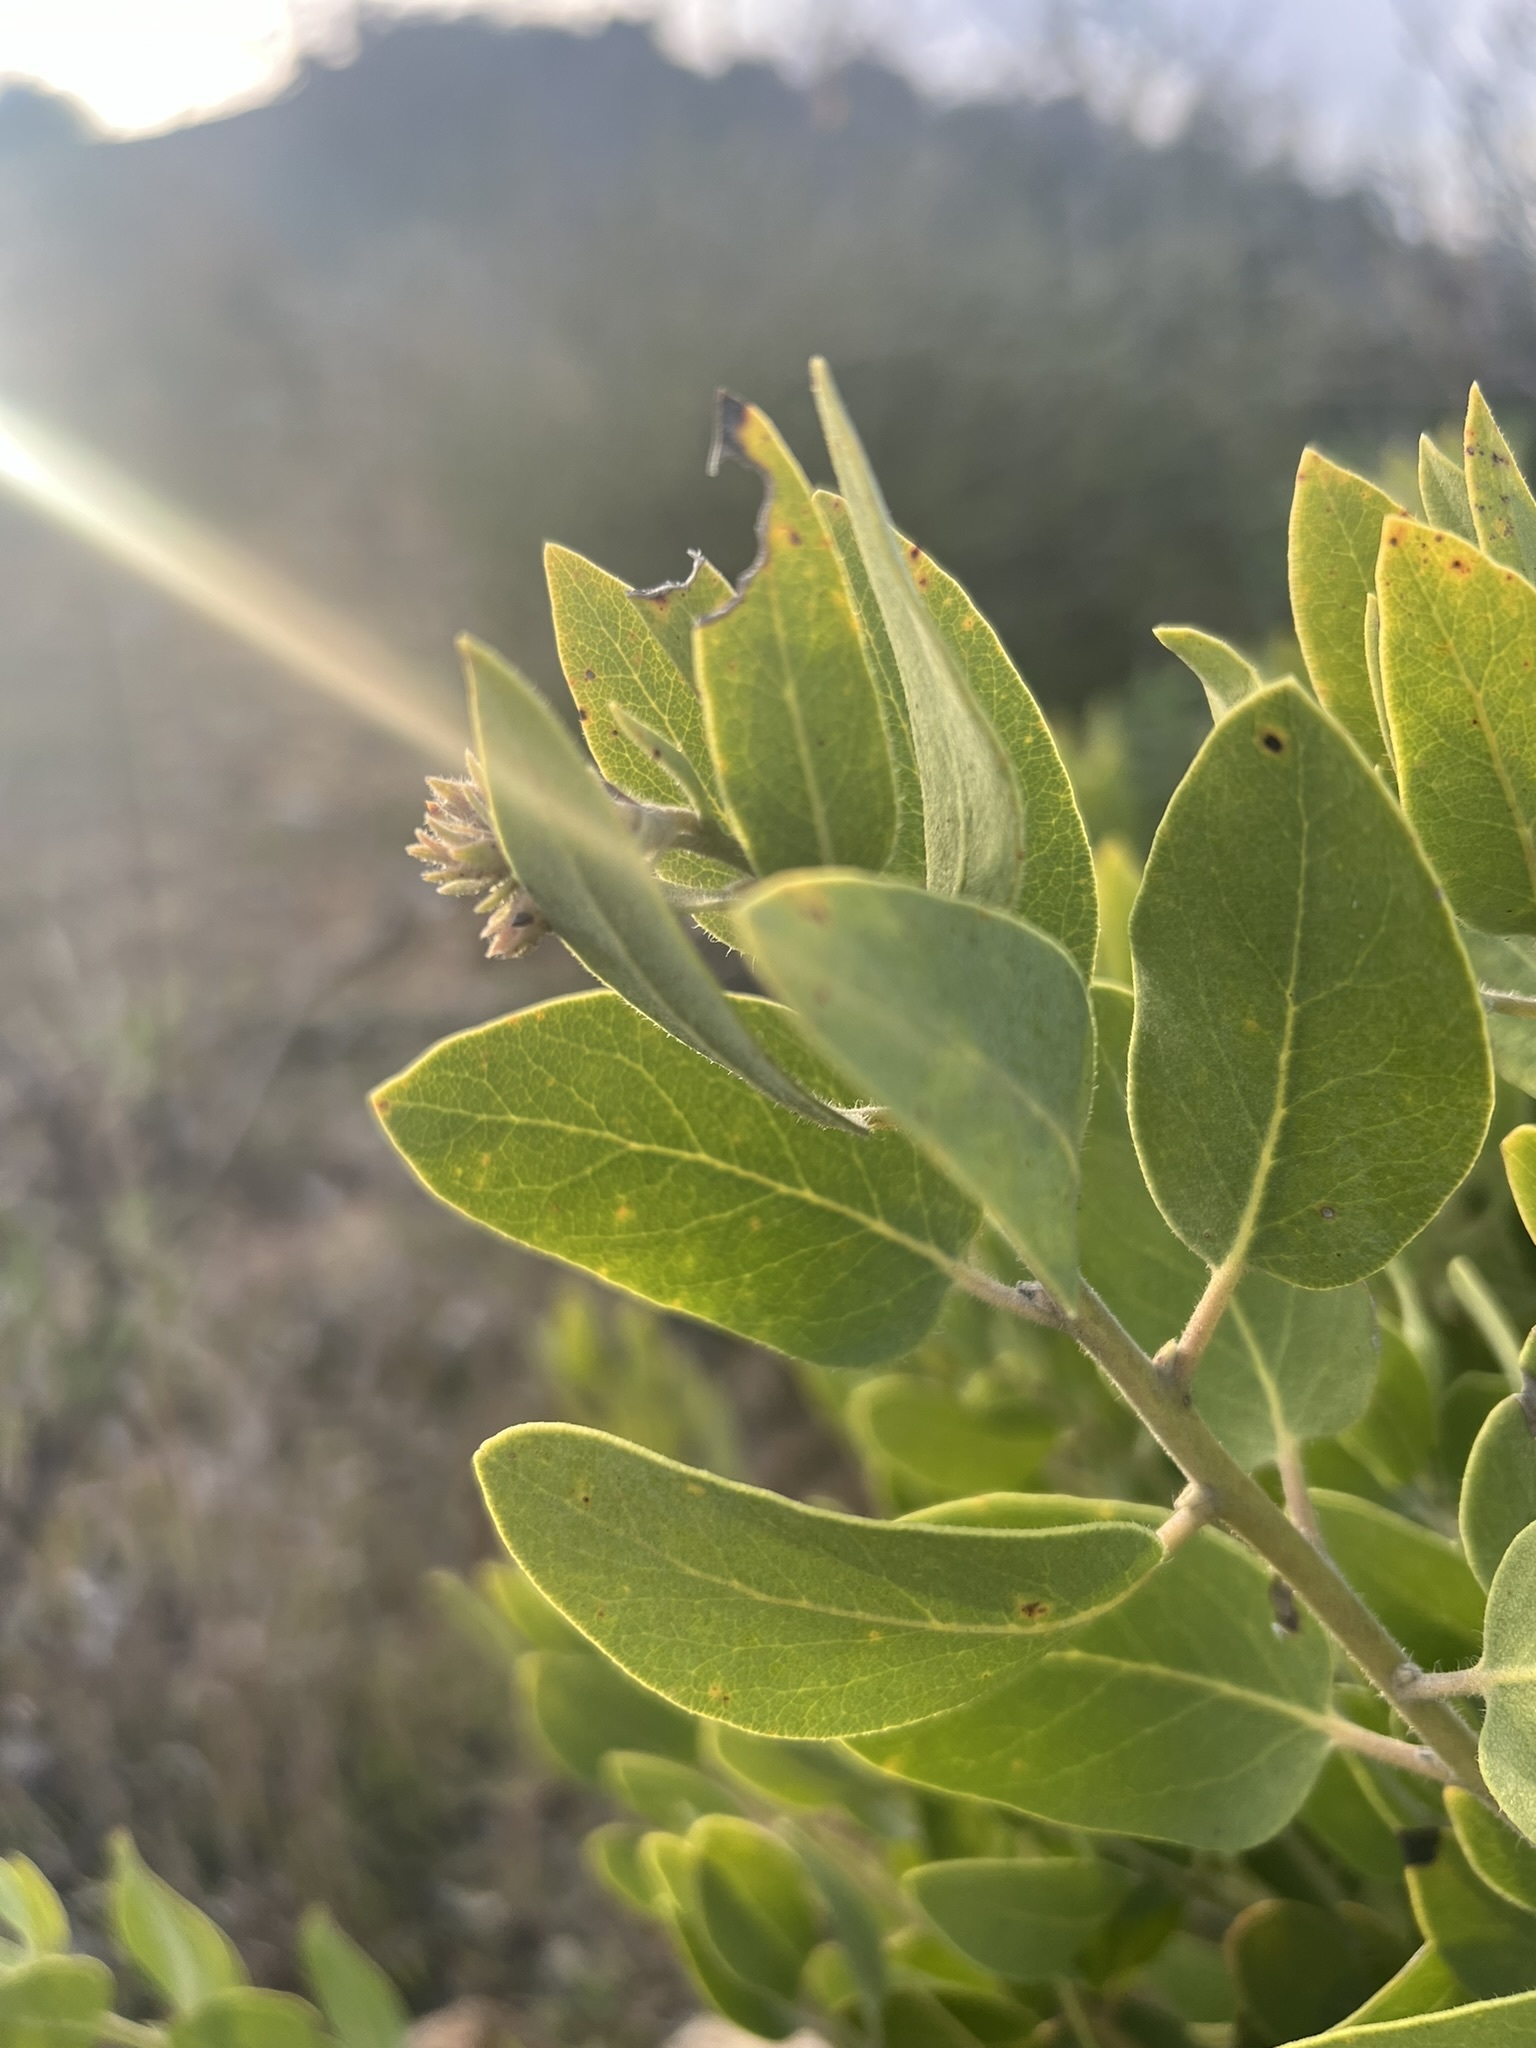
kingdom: Plantae
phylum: Tracheophyta
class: Magnoliopsida
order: Ericales
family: Ericaceae
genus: Arctostaphylos
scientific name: Arctostaphylos glandulosa
